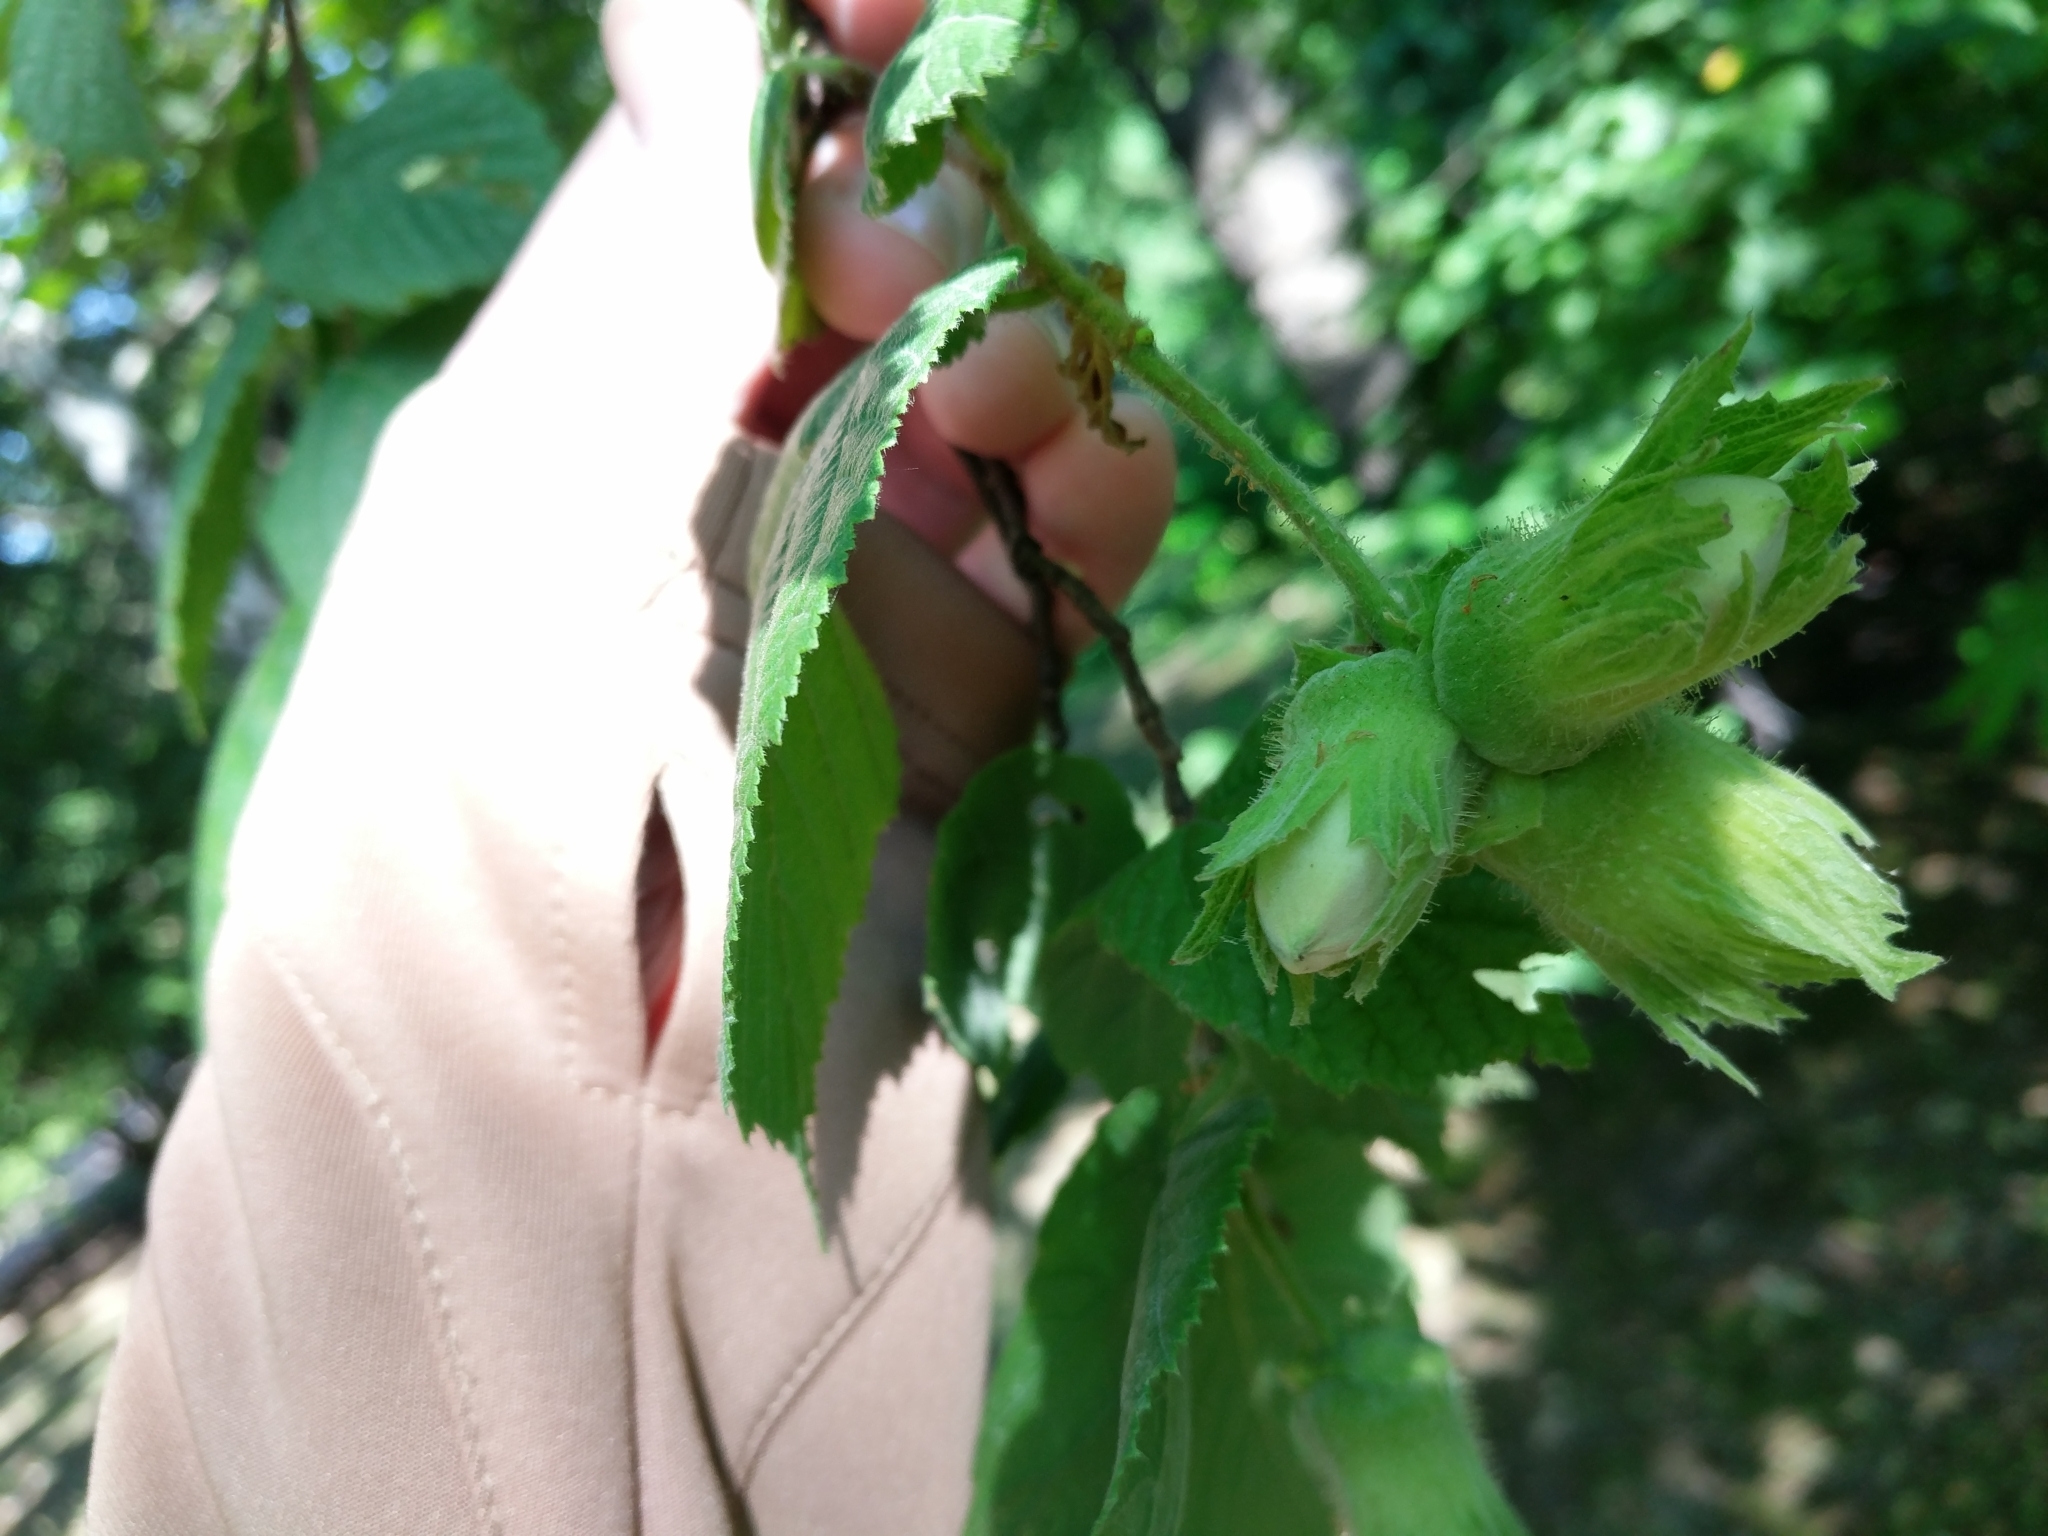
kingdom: Plantae
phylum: Tracheophyta
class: Magnoliopsida
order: Fagales
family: Betulaceae
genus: Corylus
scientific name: Corylus avellana
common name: European hazel
